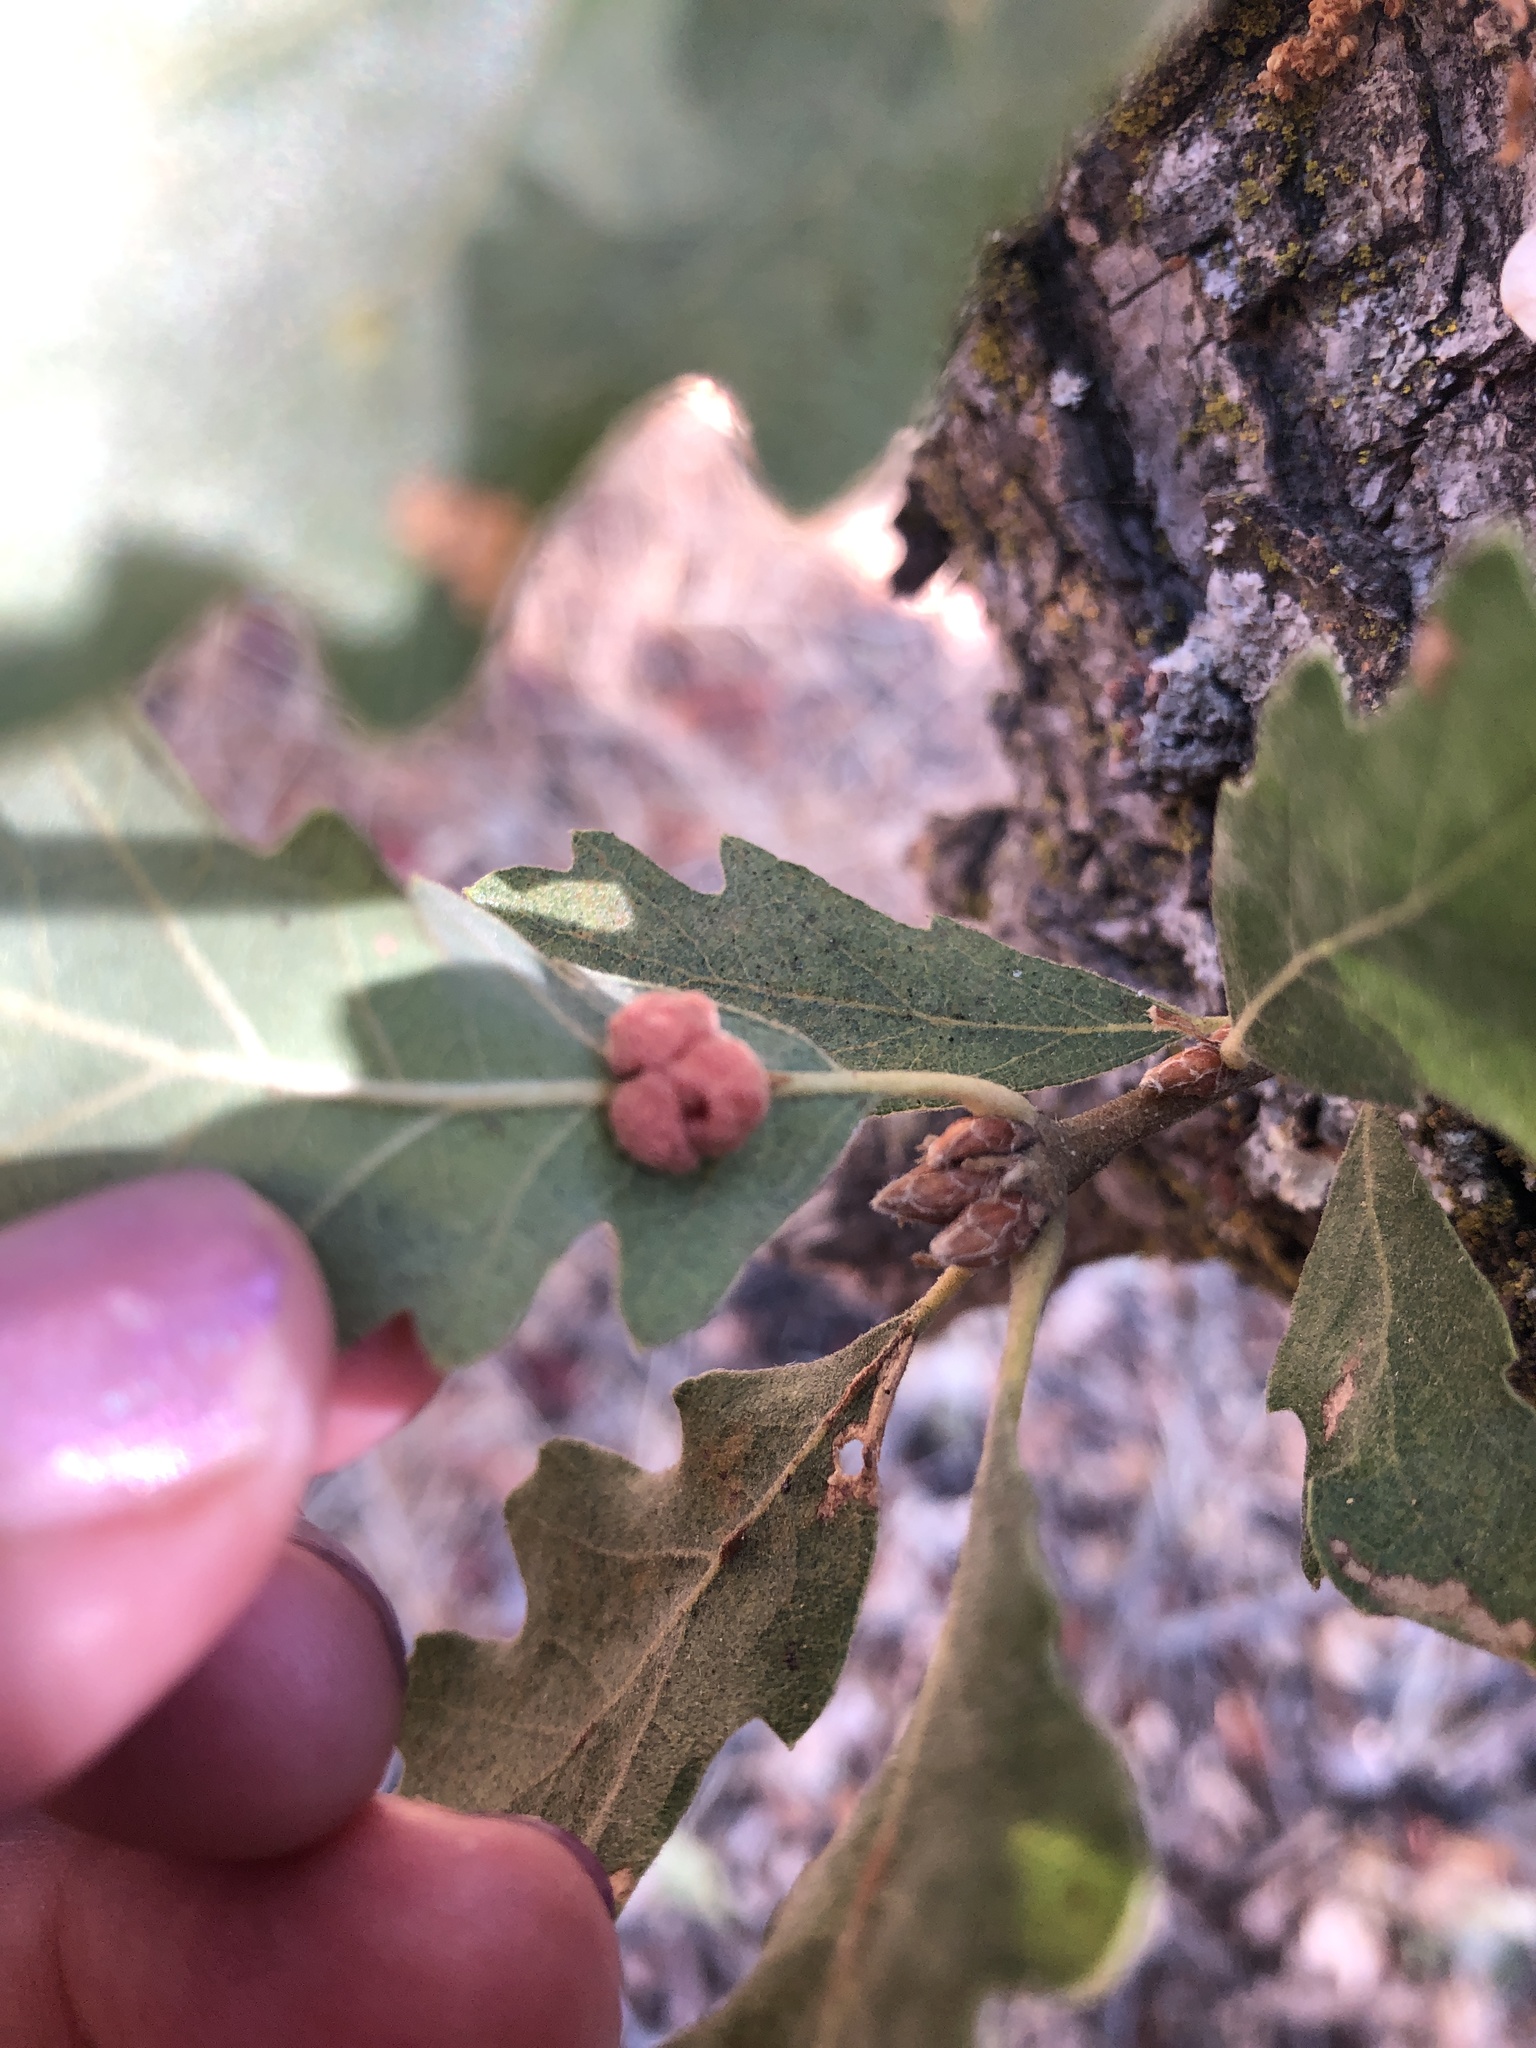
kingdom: Animalia
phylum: Arthropoda
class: Insecta
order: Hymenoptera
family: Cynipidae
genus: Andricus
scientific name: Andricus
